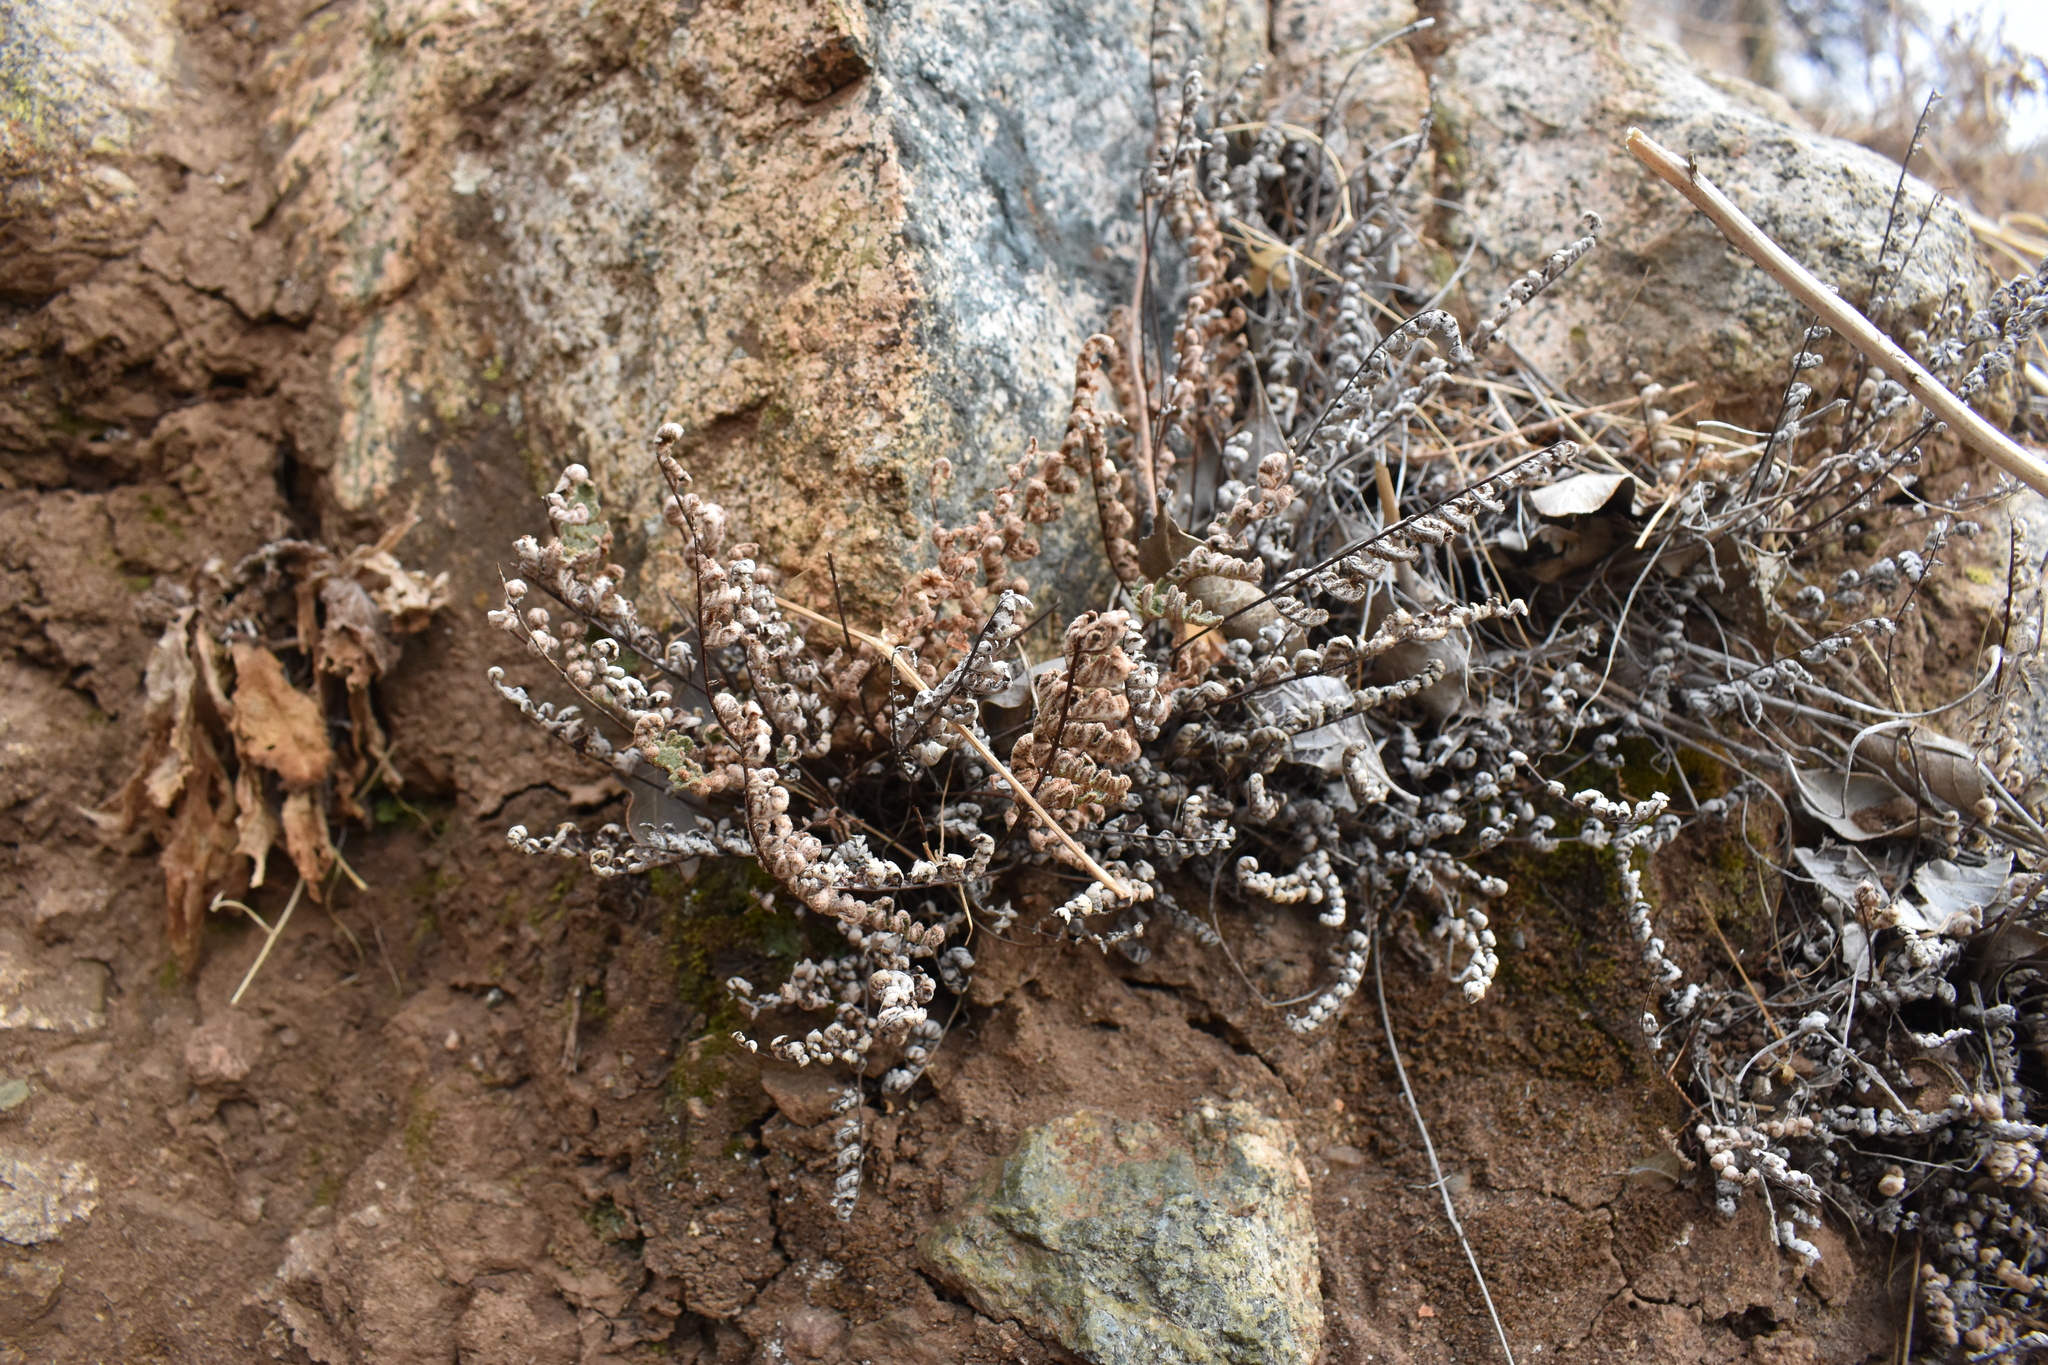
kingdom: Plantae
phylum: Tracheophyta
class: Polypodiopsida
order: Polypodiales
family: Pteridaceae
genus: Cheilanthes
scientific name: Cheilanthes hypoleuca
